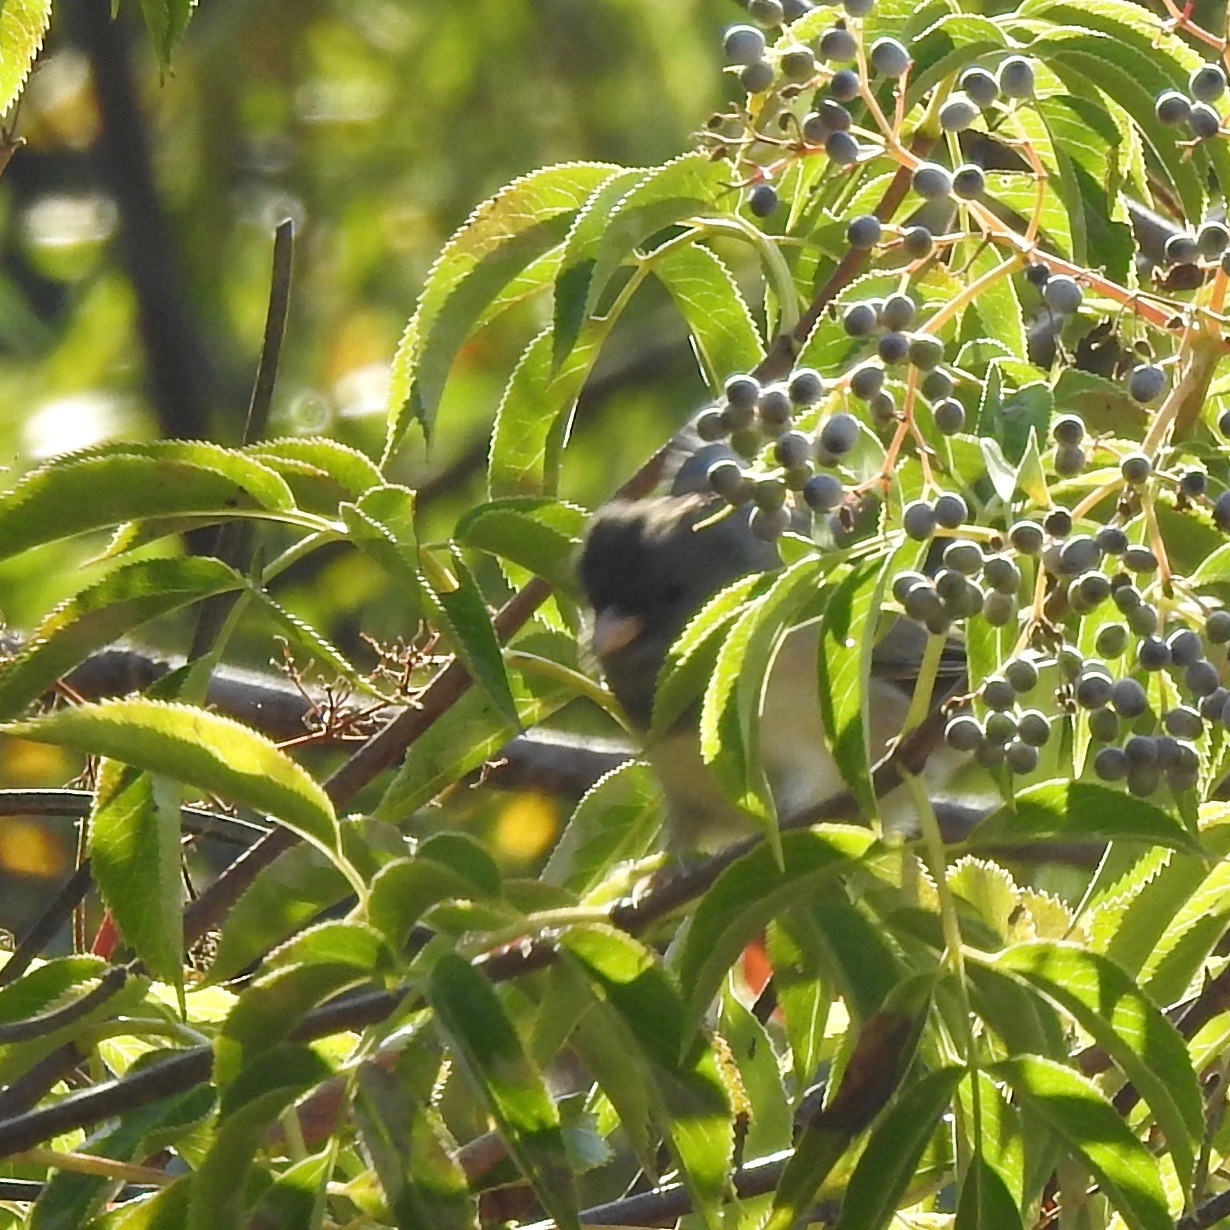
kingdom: Plantae
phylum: Tracheophyta
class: Magnoliopsida
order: Dipsacales
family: Viburnaceae
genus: Sambucus
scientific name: Sambucus cerulea
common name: Blue elder
